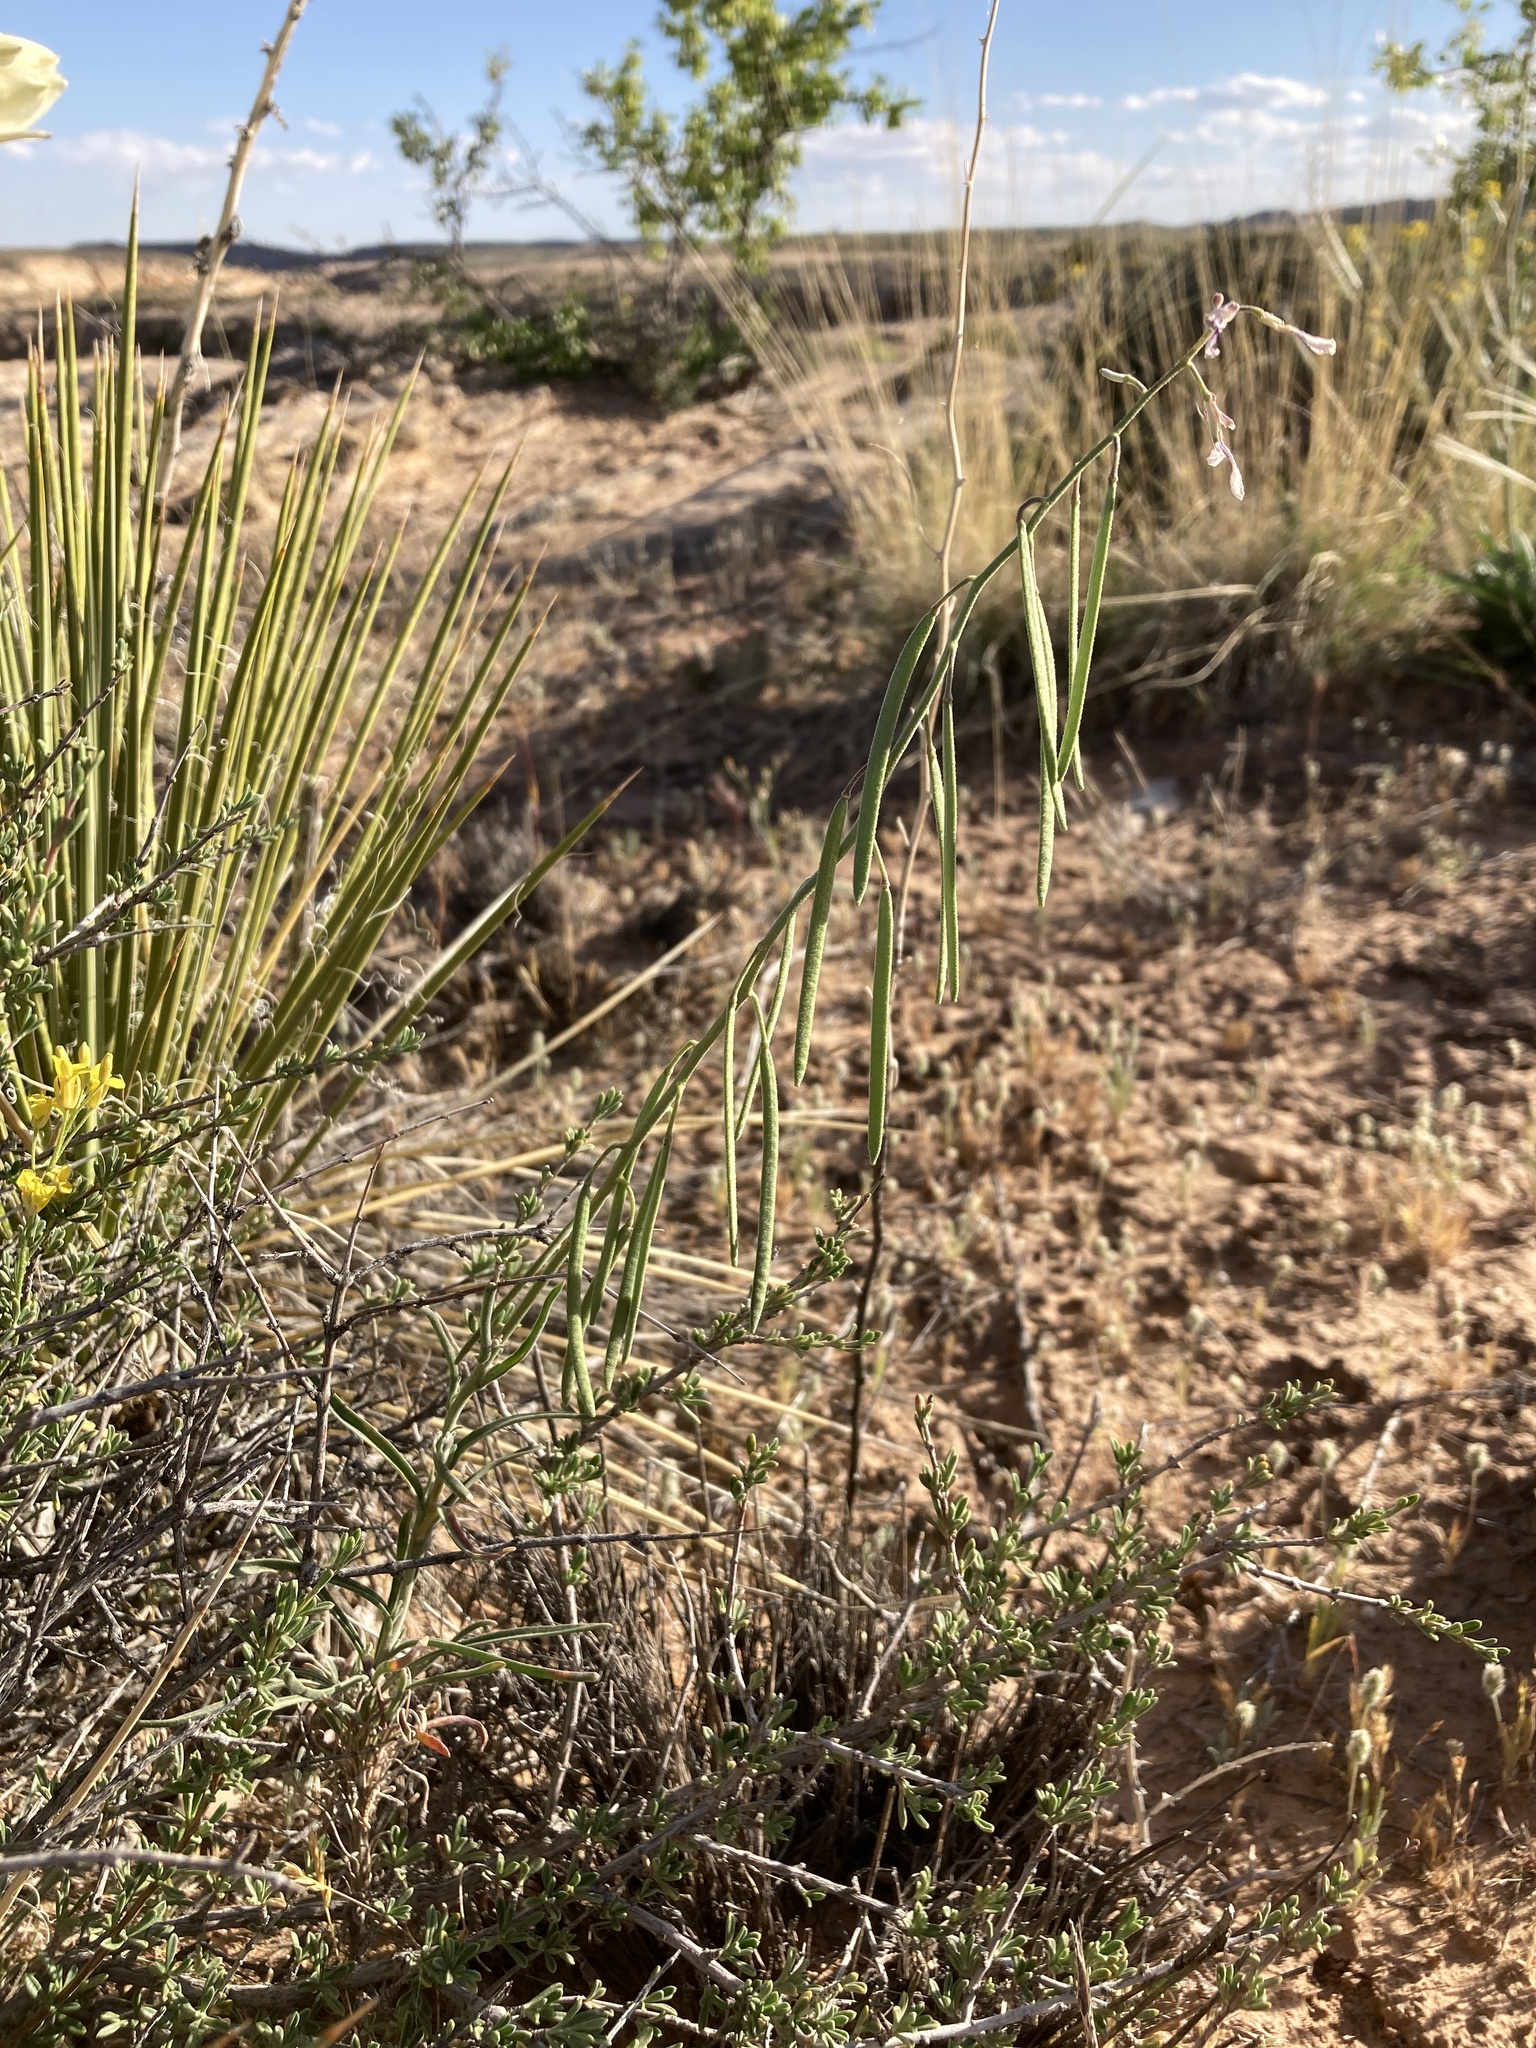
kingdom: Plantae
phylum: Tracheophyta
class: Magnoliopsida
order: Brassicales
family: Brassicaceae
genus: Boechera
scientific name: Boechera formosa
